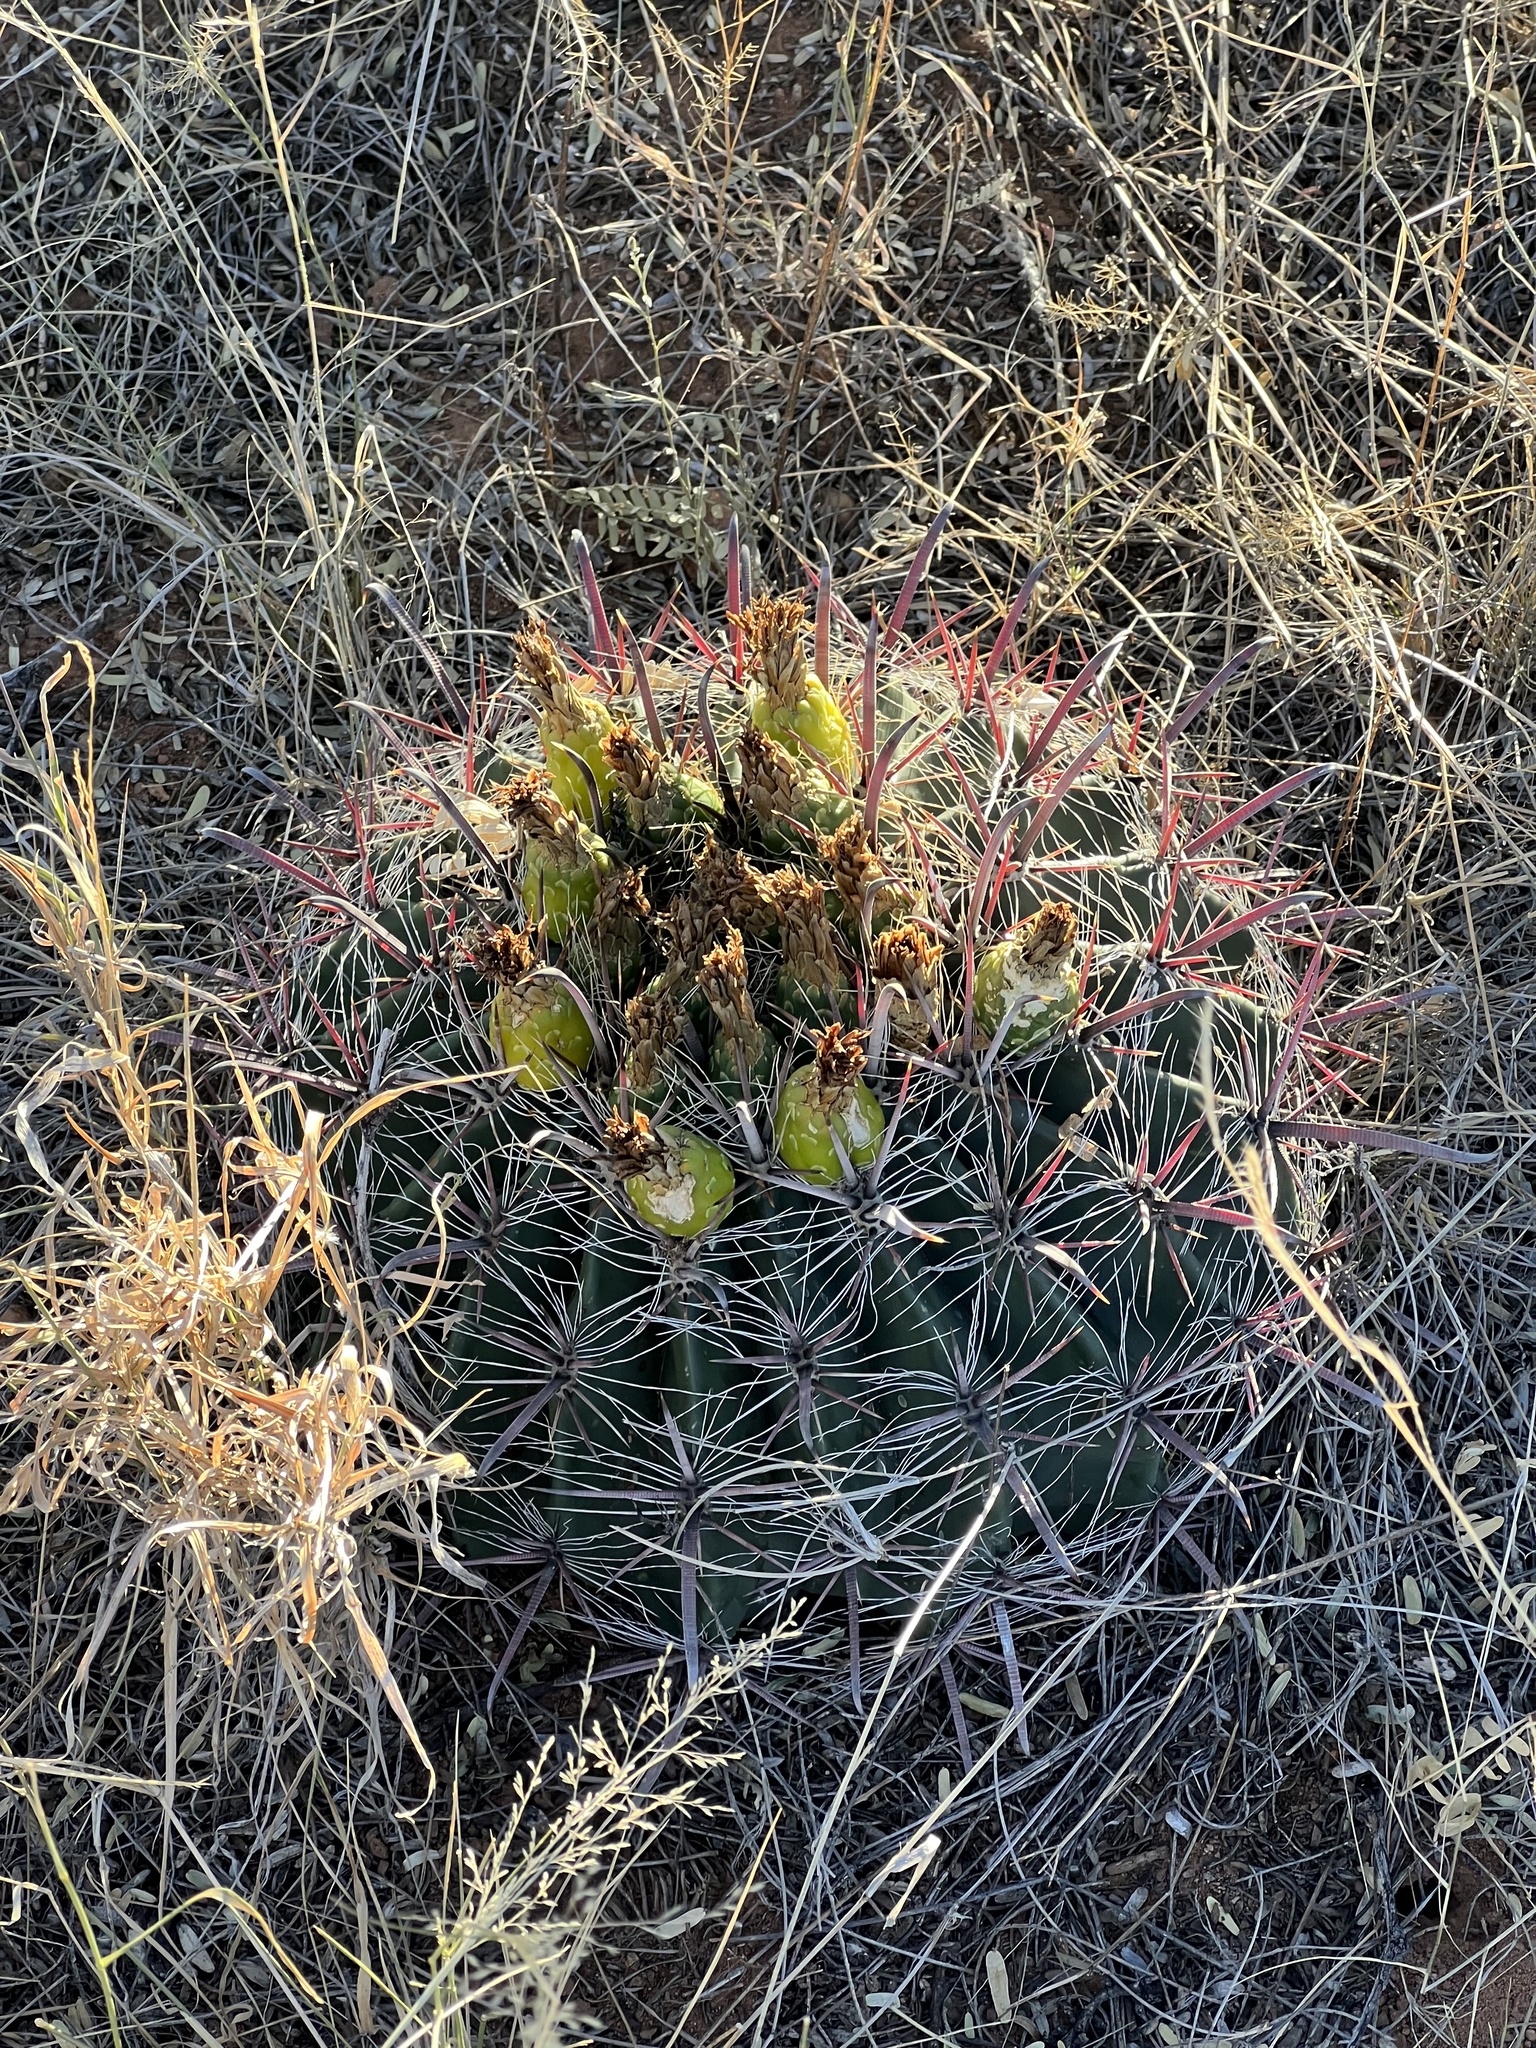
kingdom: Plantae
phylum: Tracheophyta
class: Magnoliopsida
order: Caryophyllales
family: Cactaceae
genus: Ferocactus
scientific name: Ferocactus wislizeni
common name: Candy barrel cactus
